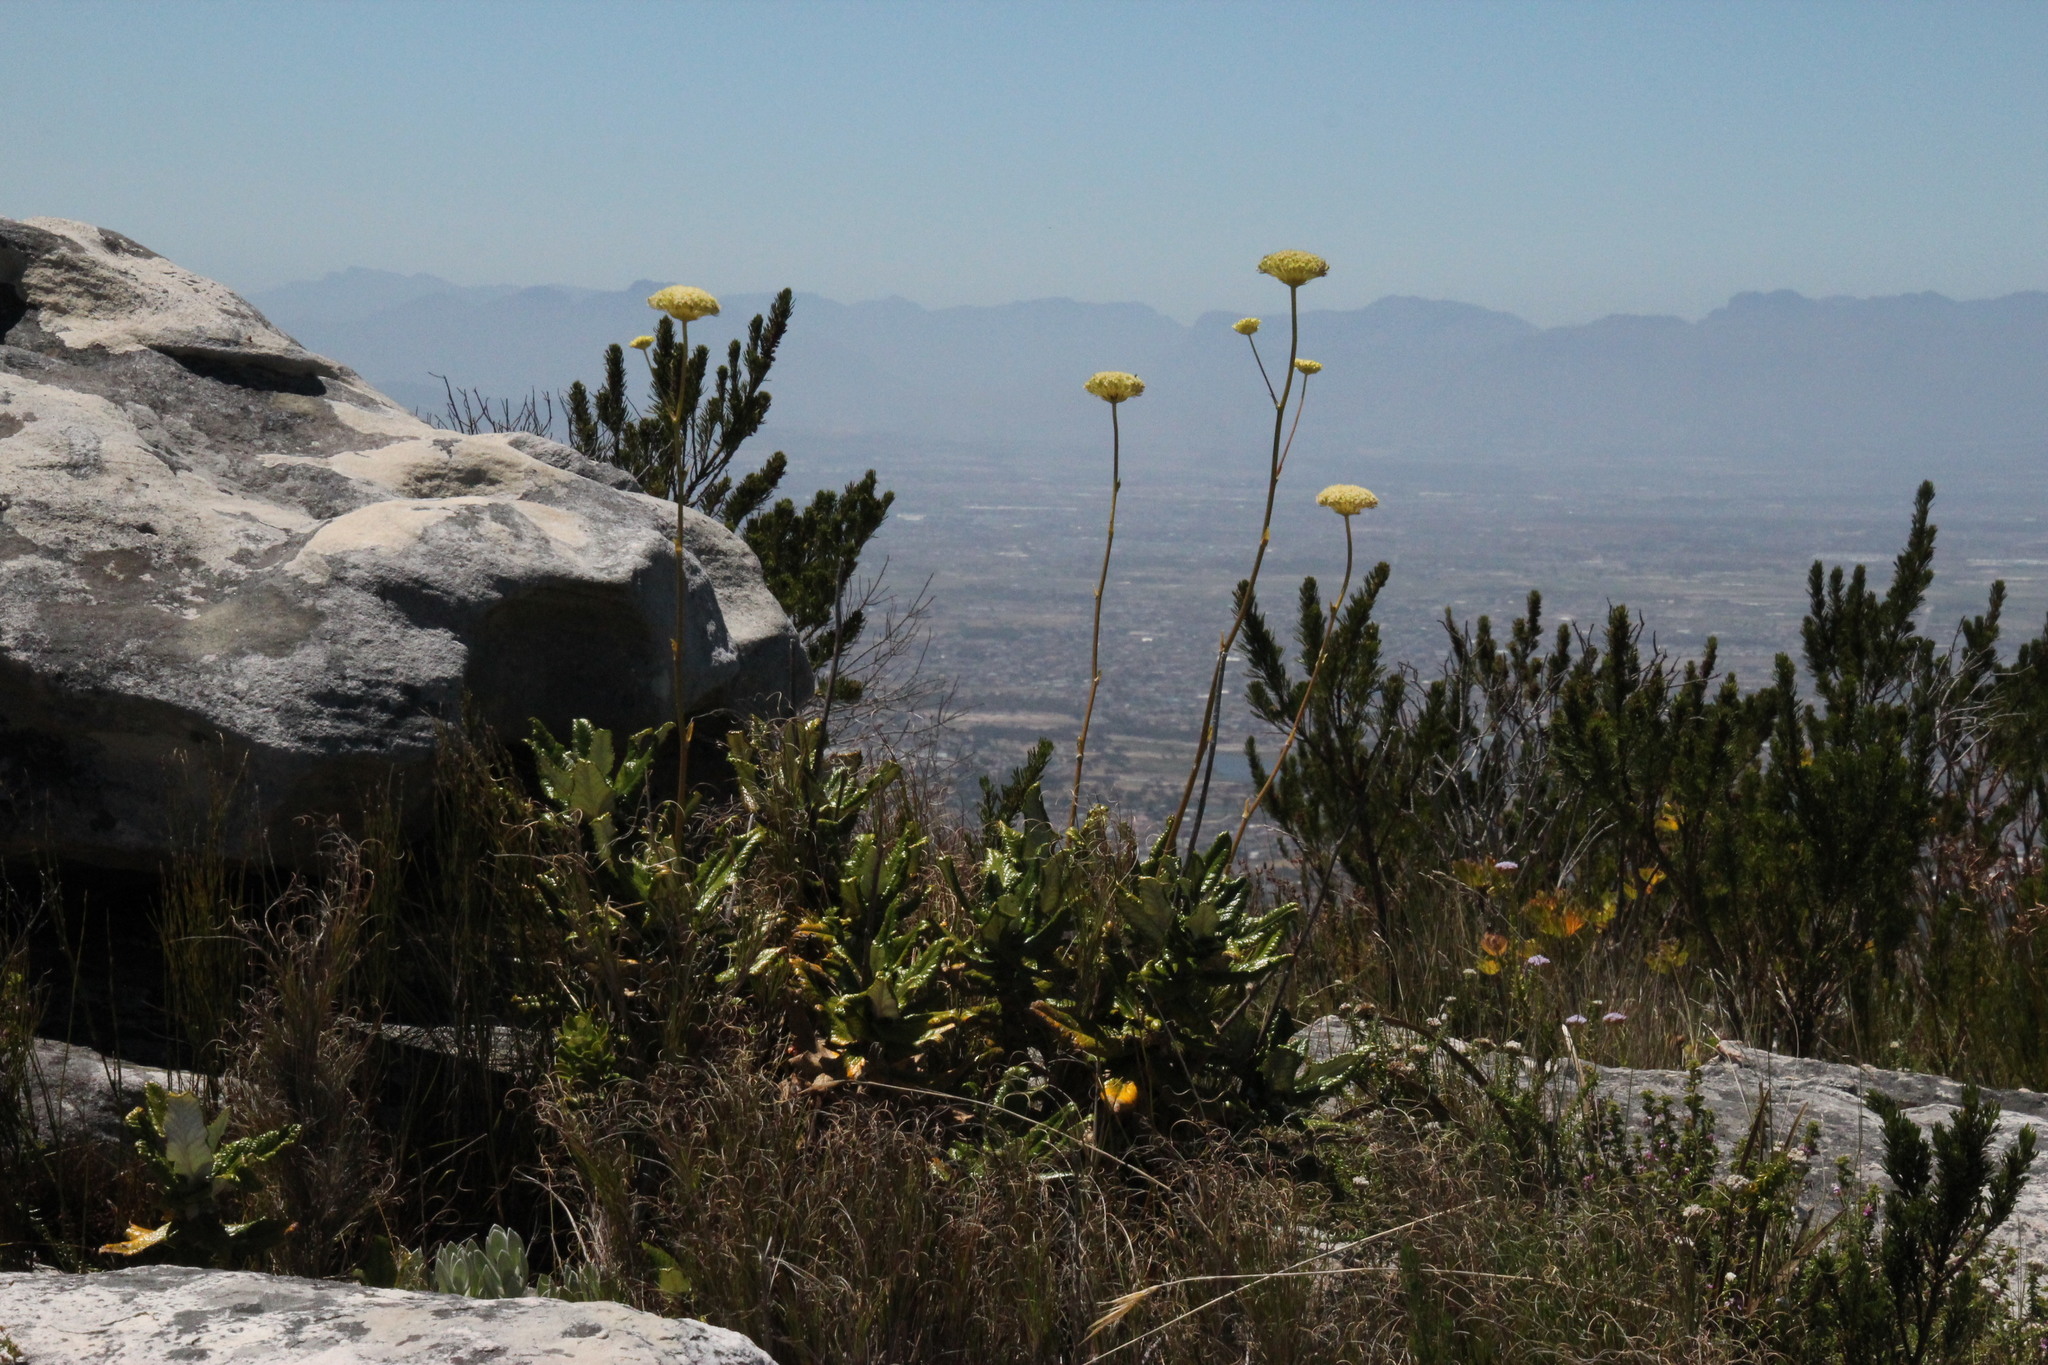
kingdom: Plantae
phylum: Tracheophyta
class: Magnoliopsida
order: Apiales
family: Apiaceae
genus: Hermas
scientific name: Hermas villosa
